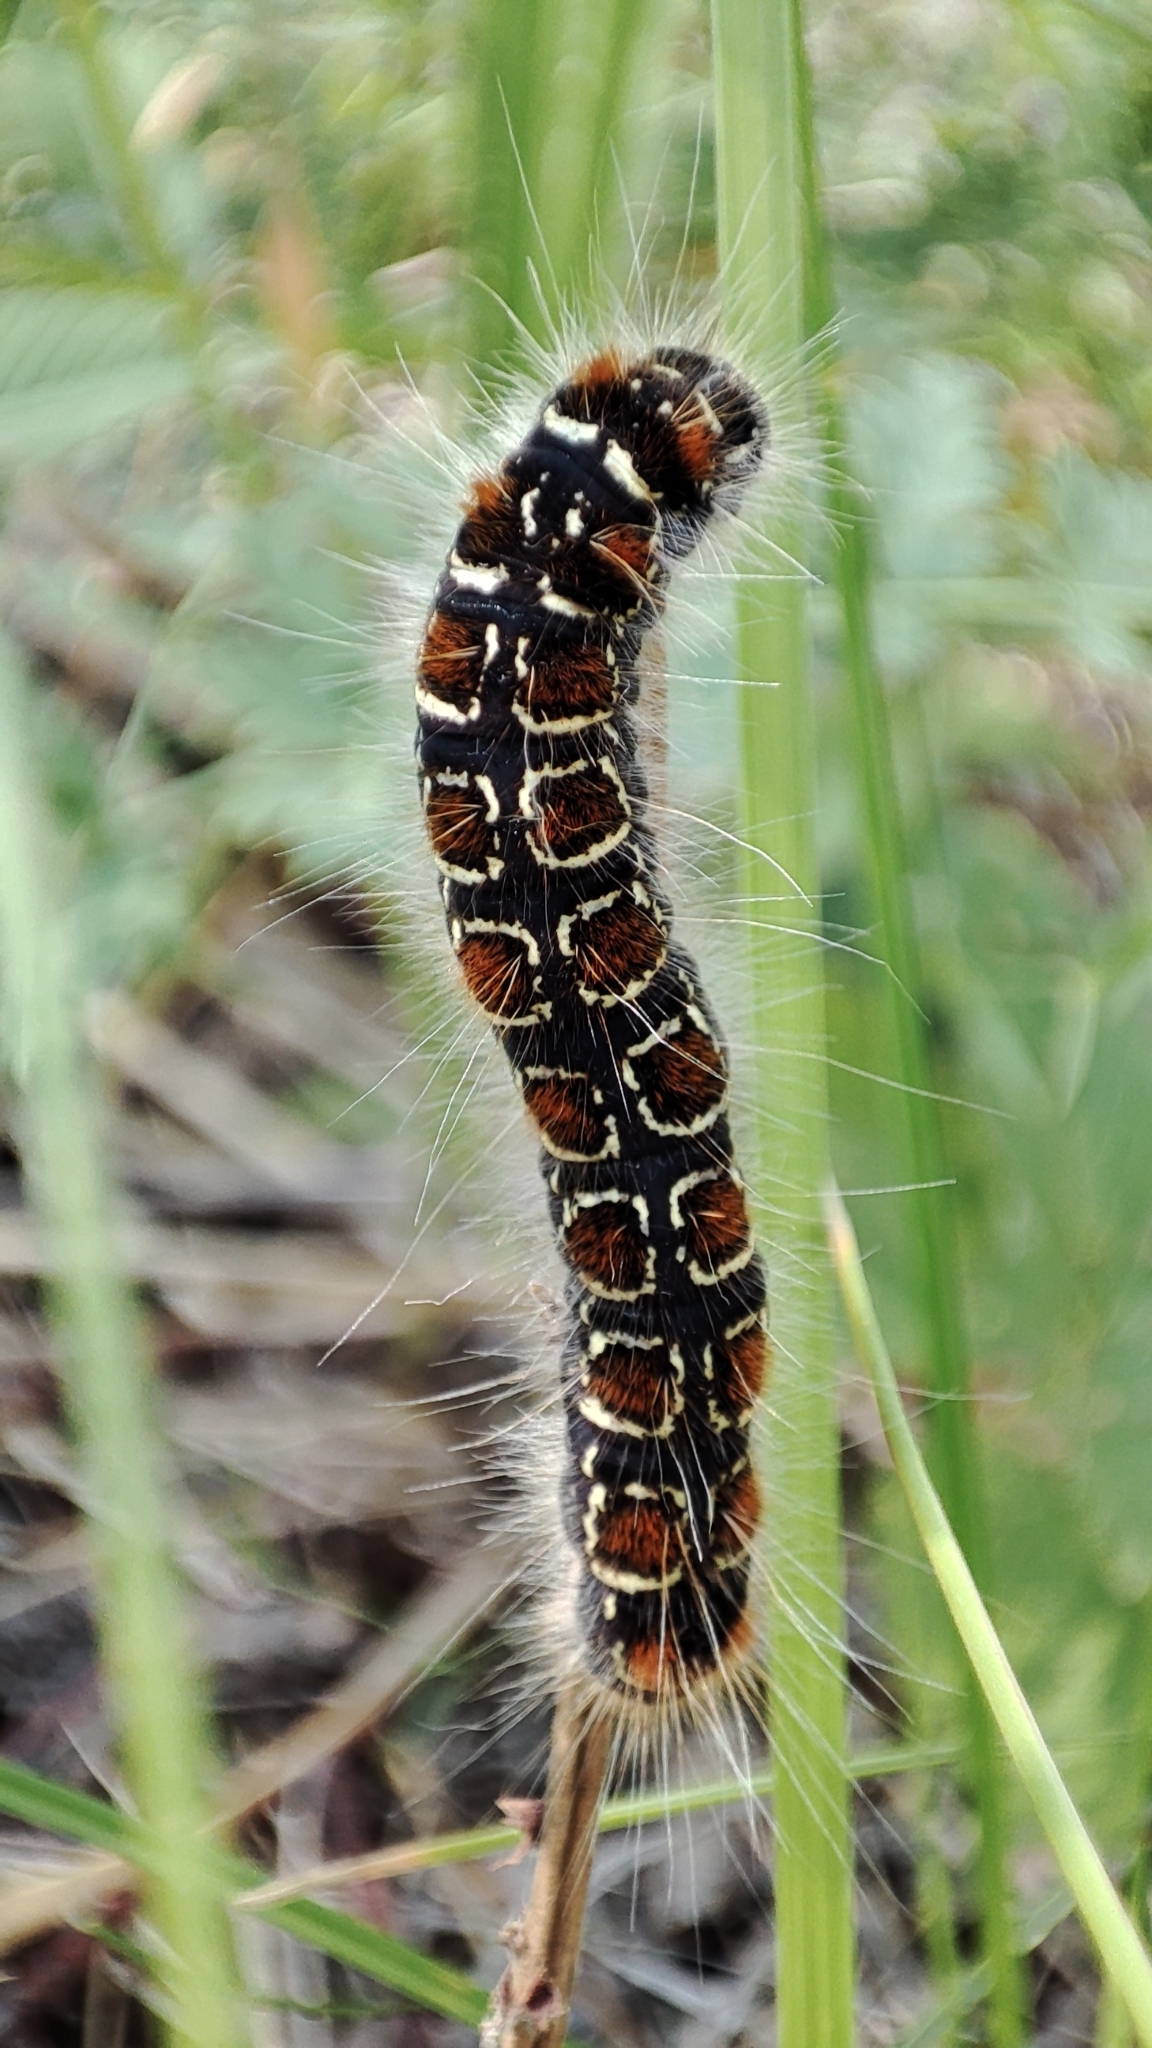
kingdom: Animalia
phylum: Arthropoda
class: Insecta
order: Lepidoptera
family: Lasiocampidae
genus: Eriogaster
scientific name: Eriogaster lanestris
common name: Small eggar
